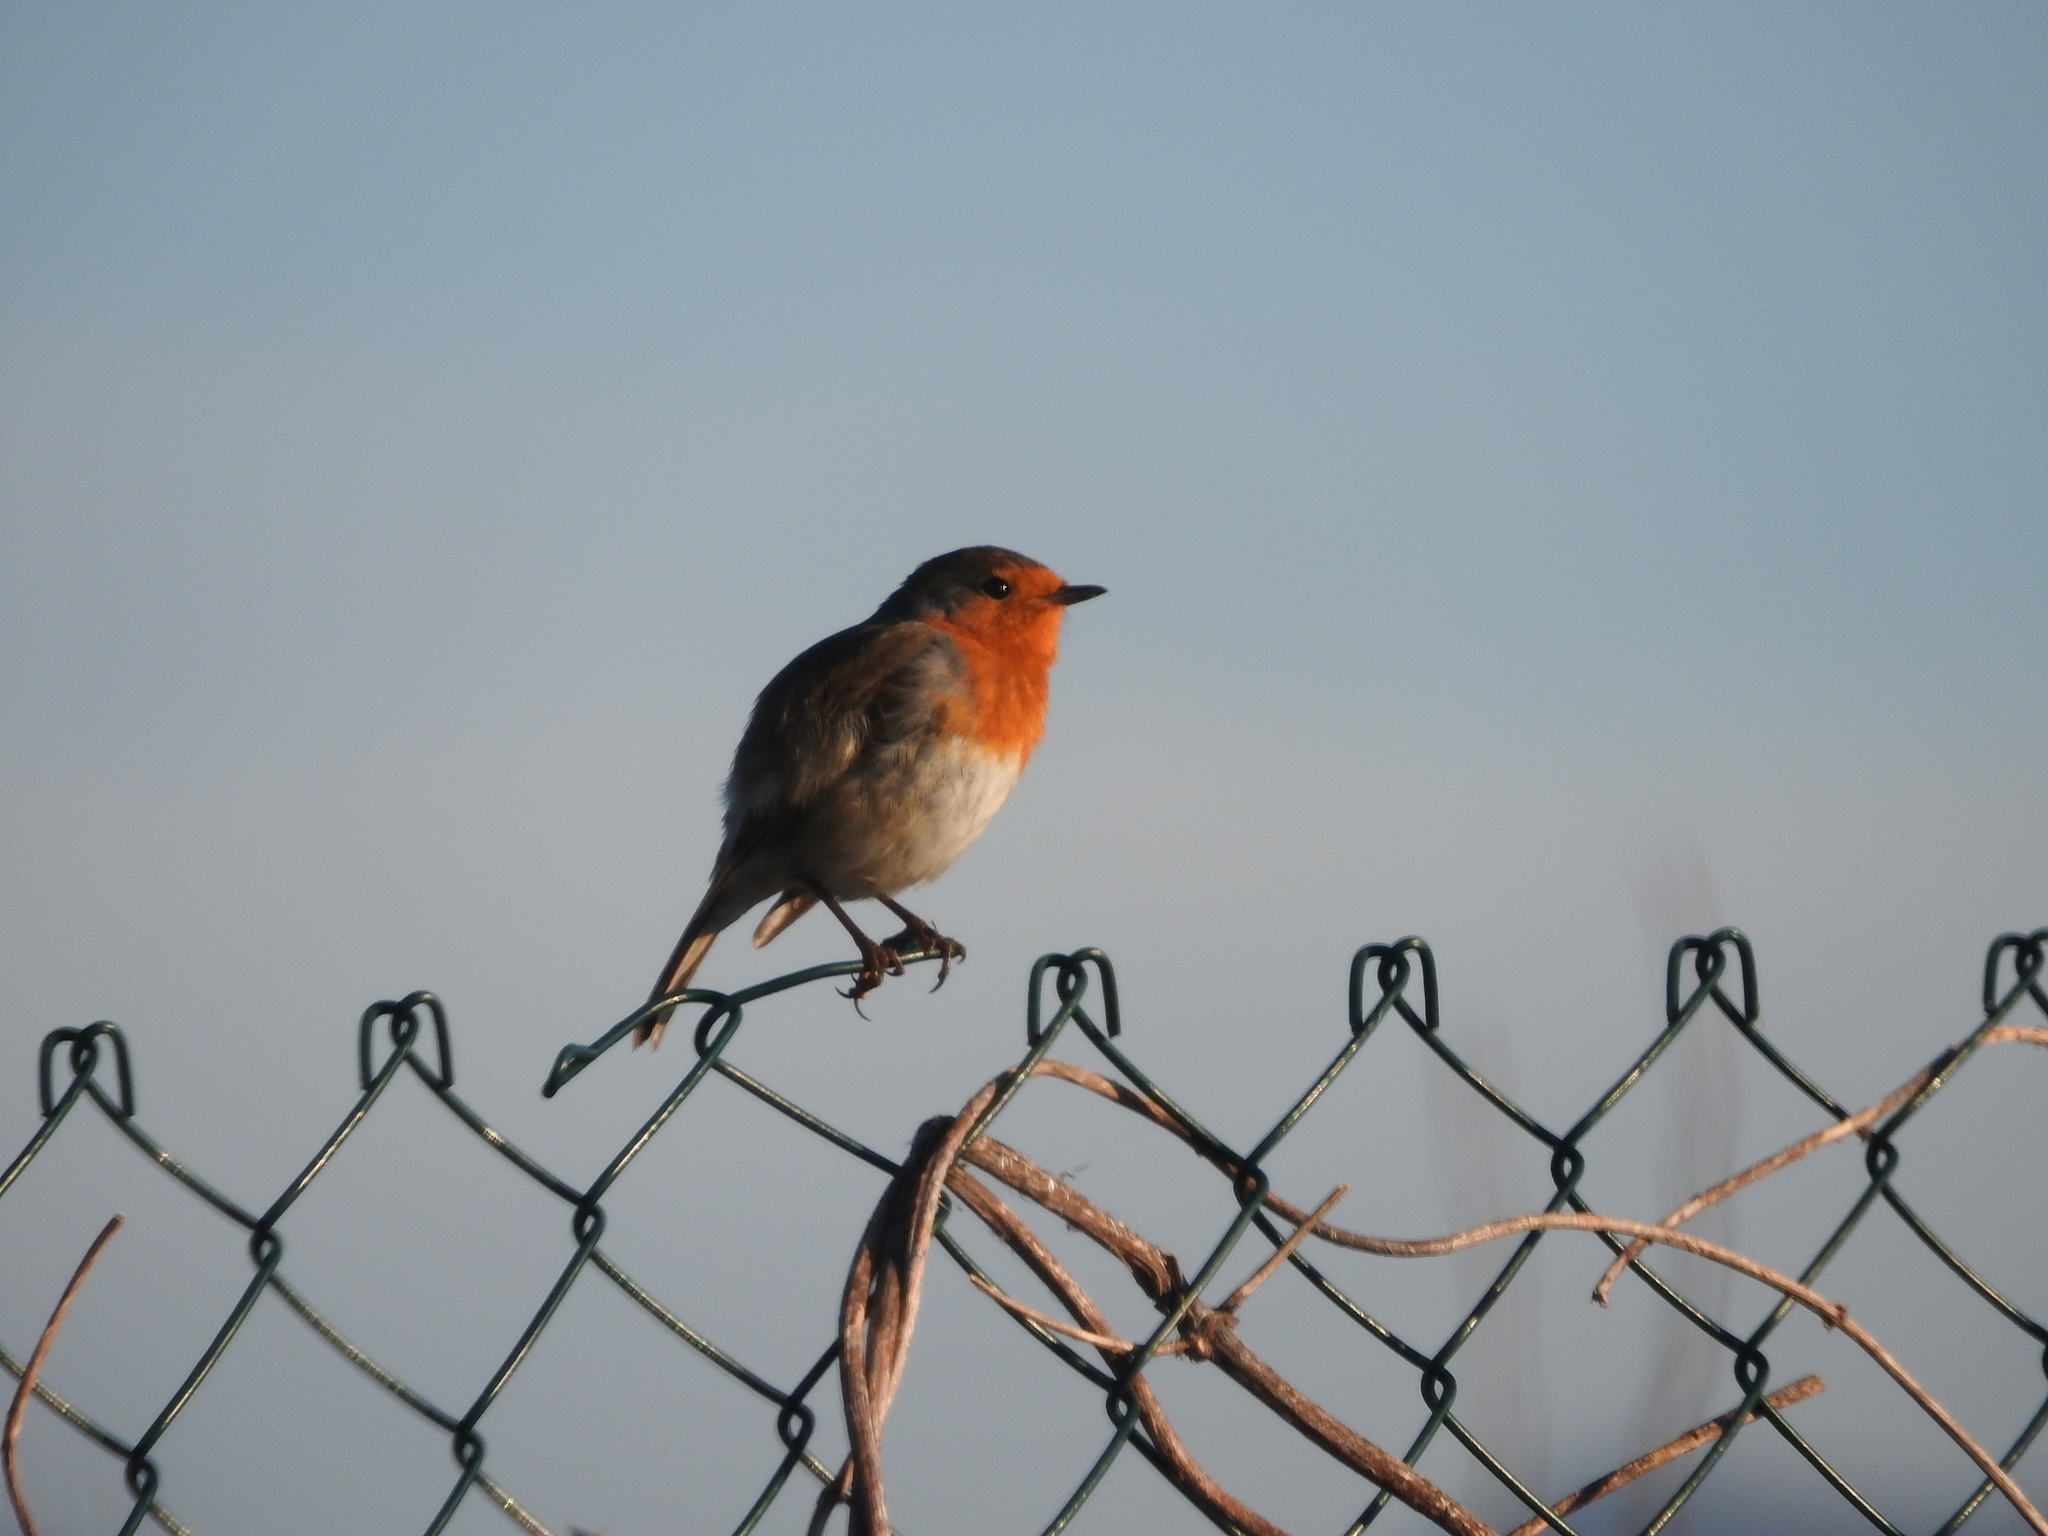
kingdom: Animalia
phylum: Chordata
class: Aves
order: Passeriformes
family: Muscicapidae
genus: Erithacus
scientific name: Erithacus rubecula
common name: European robin
